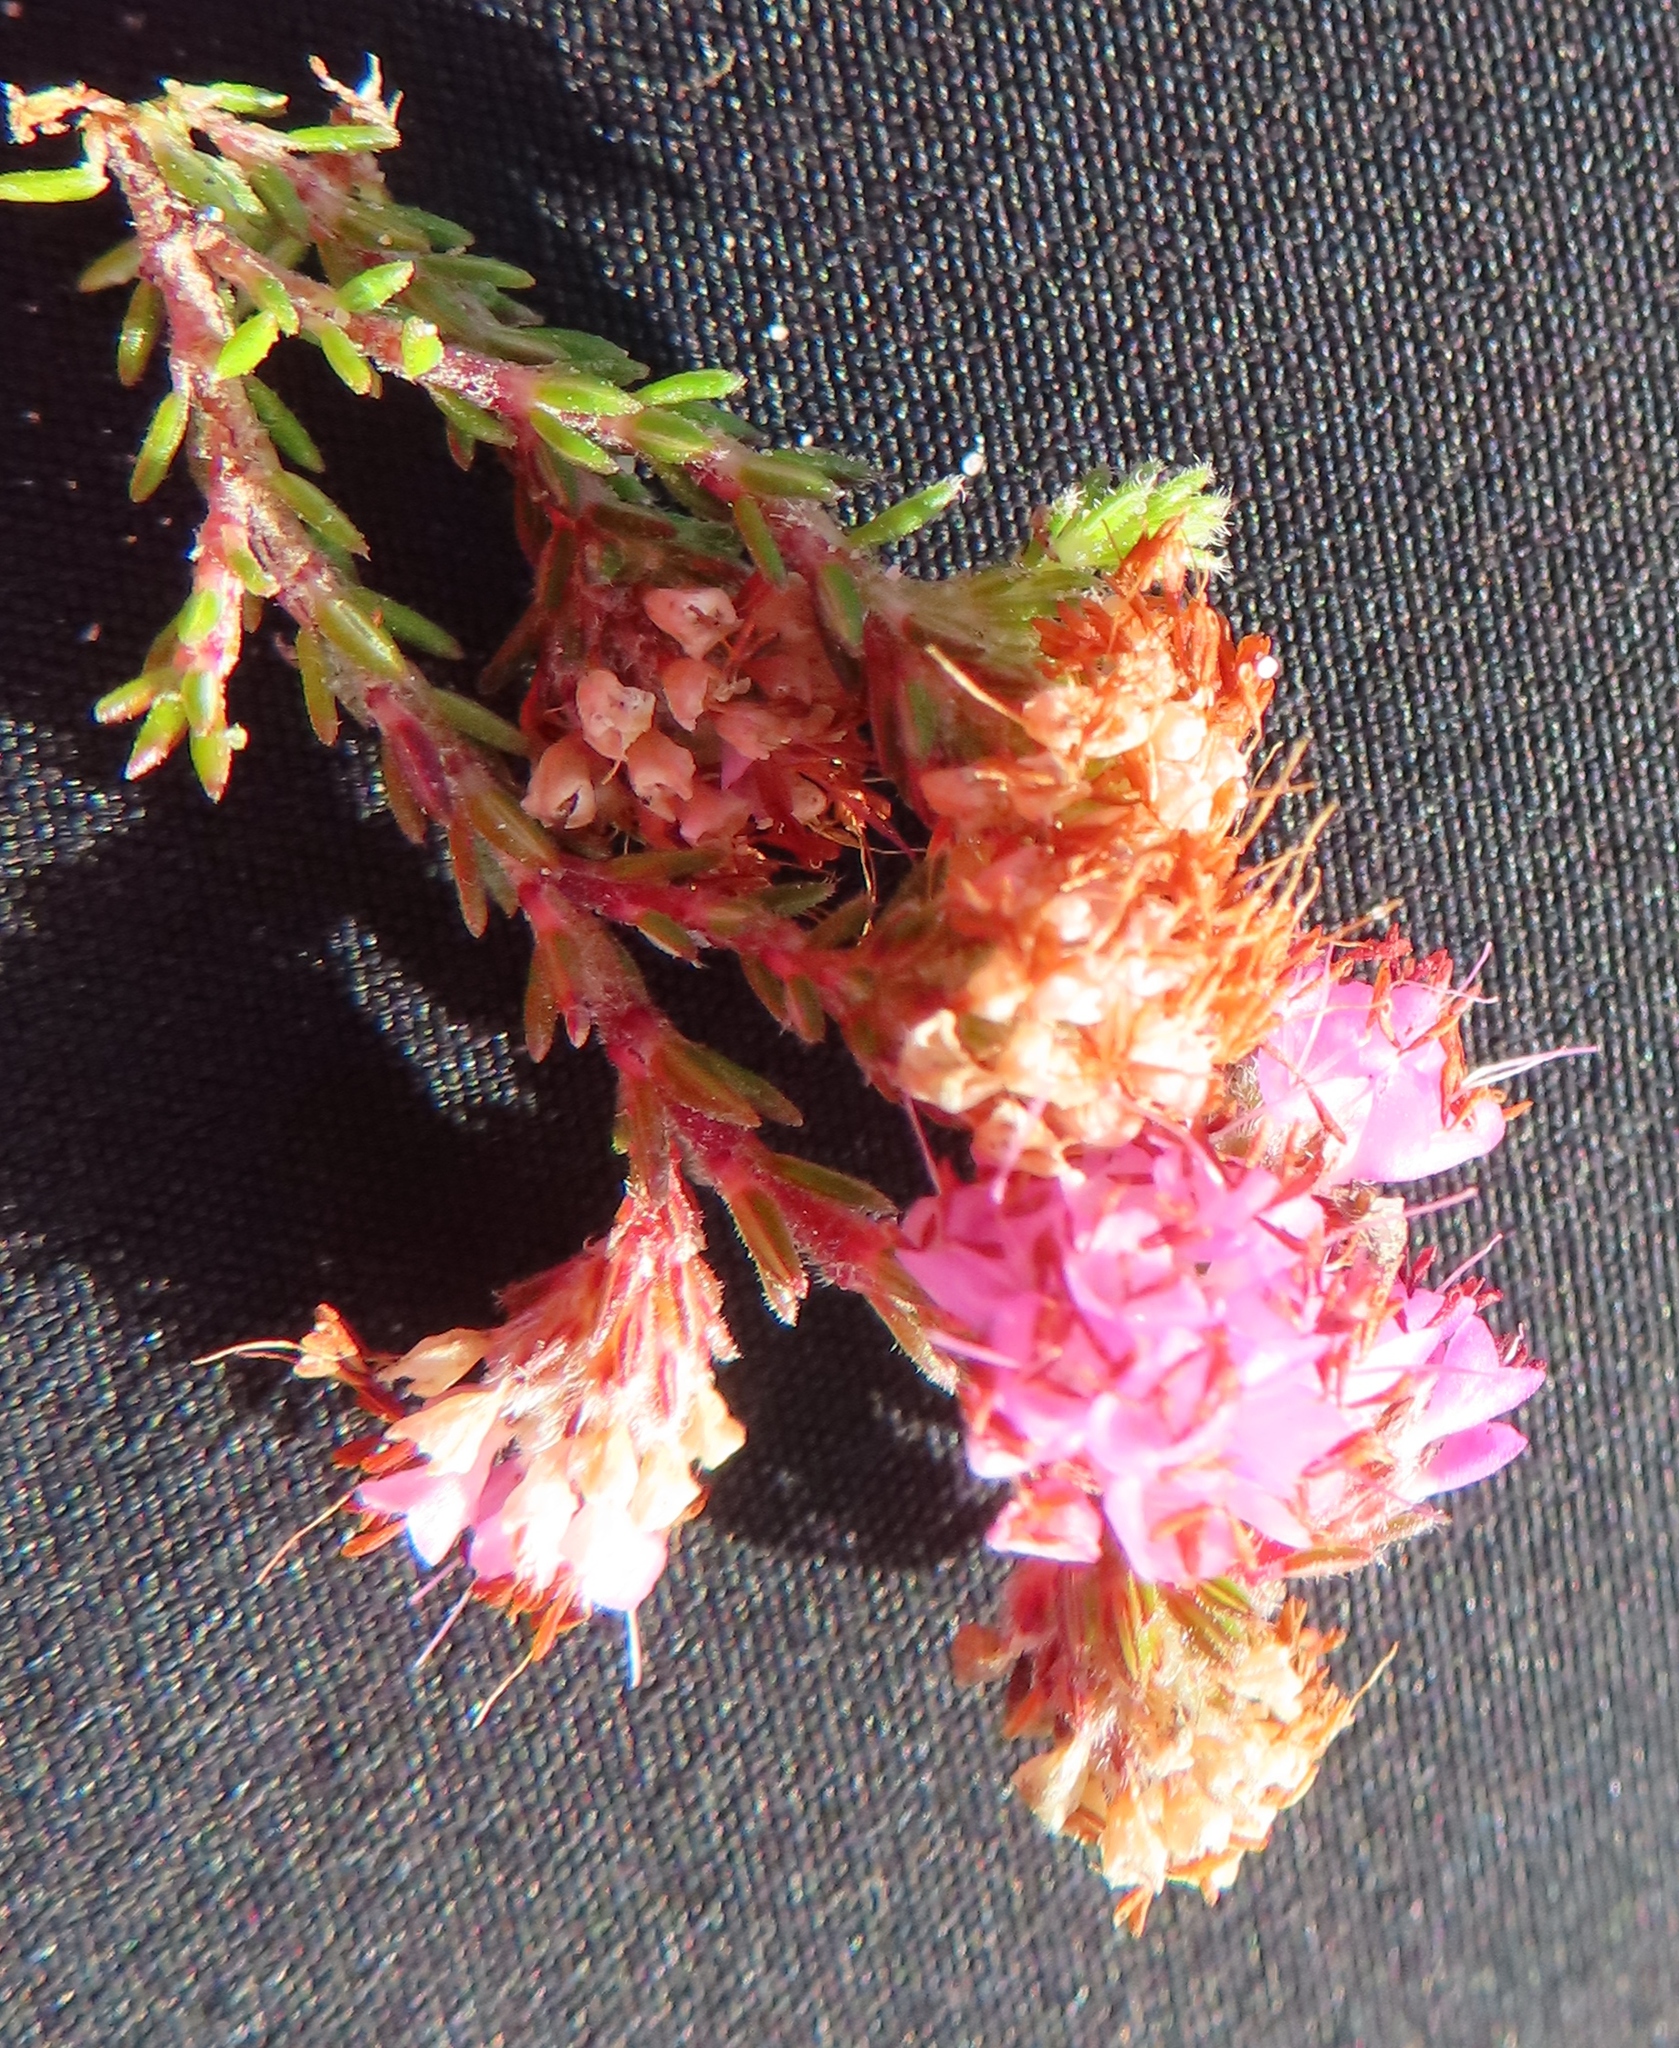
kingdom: Plantae
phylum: Tracheophyta
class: Magnoliopsida
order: Ericales
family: Ericaceae
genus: Erica
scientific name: Erica globiceps
